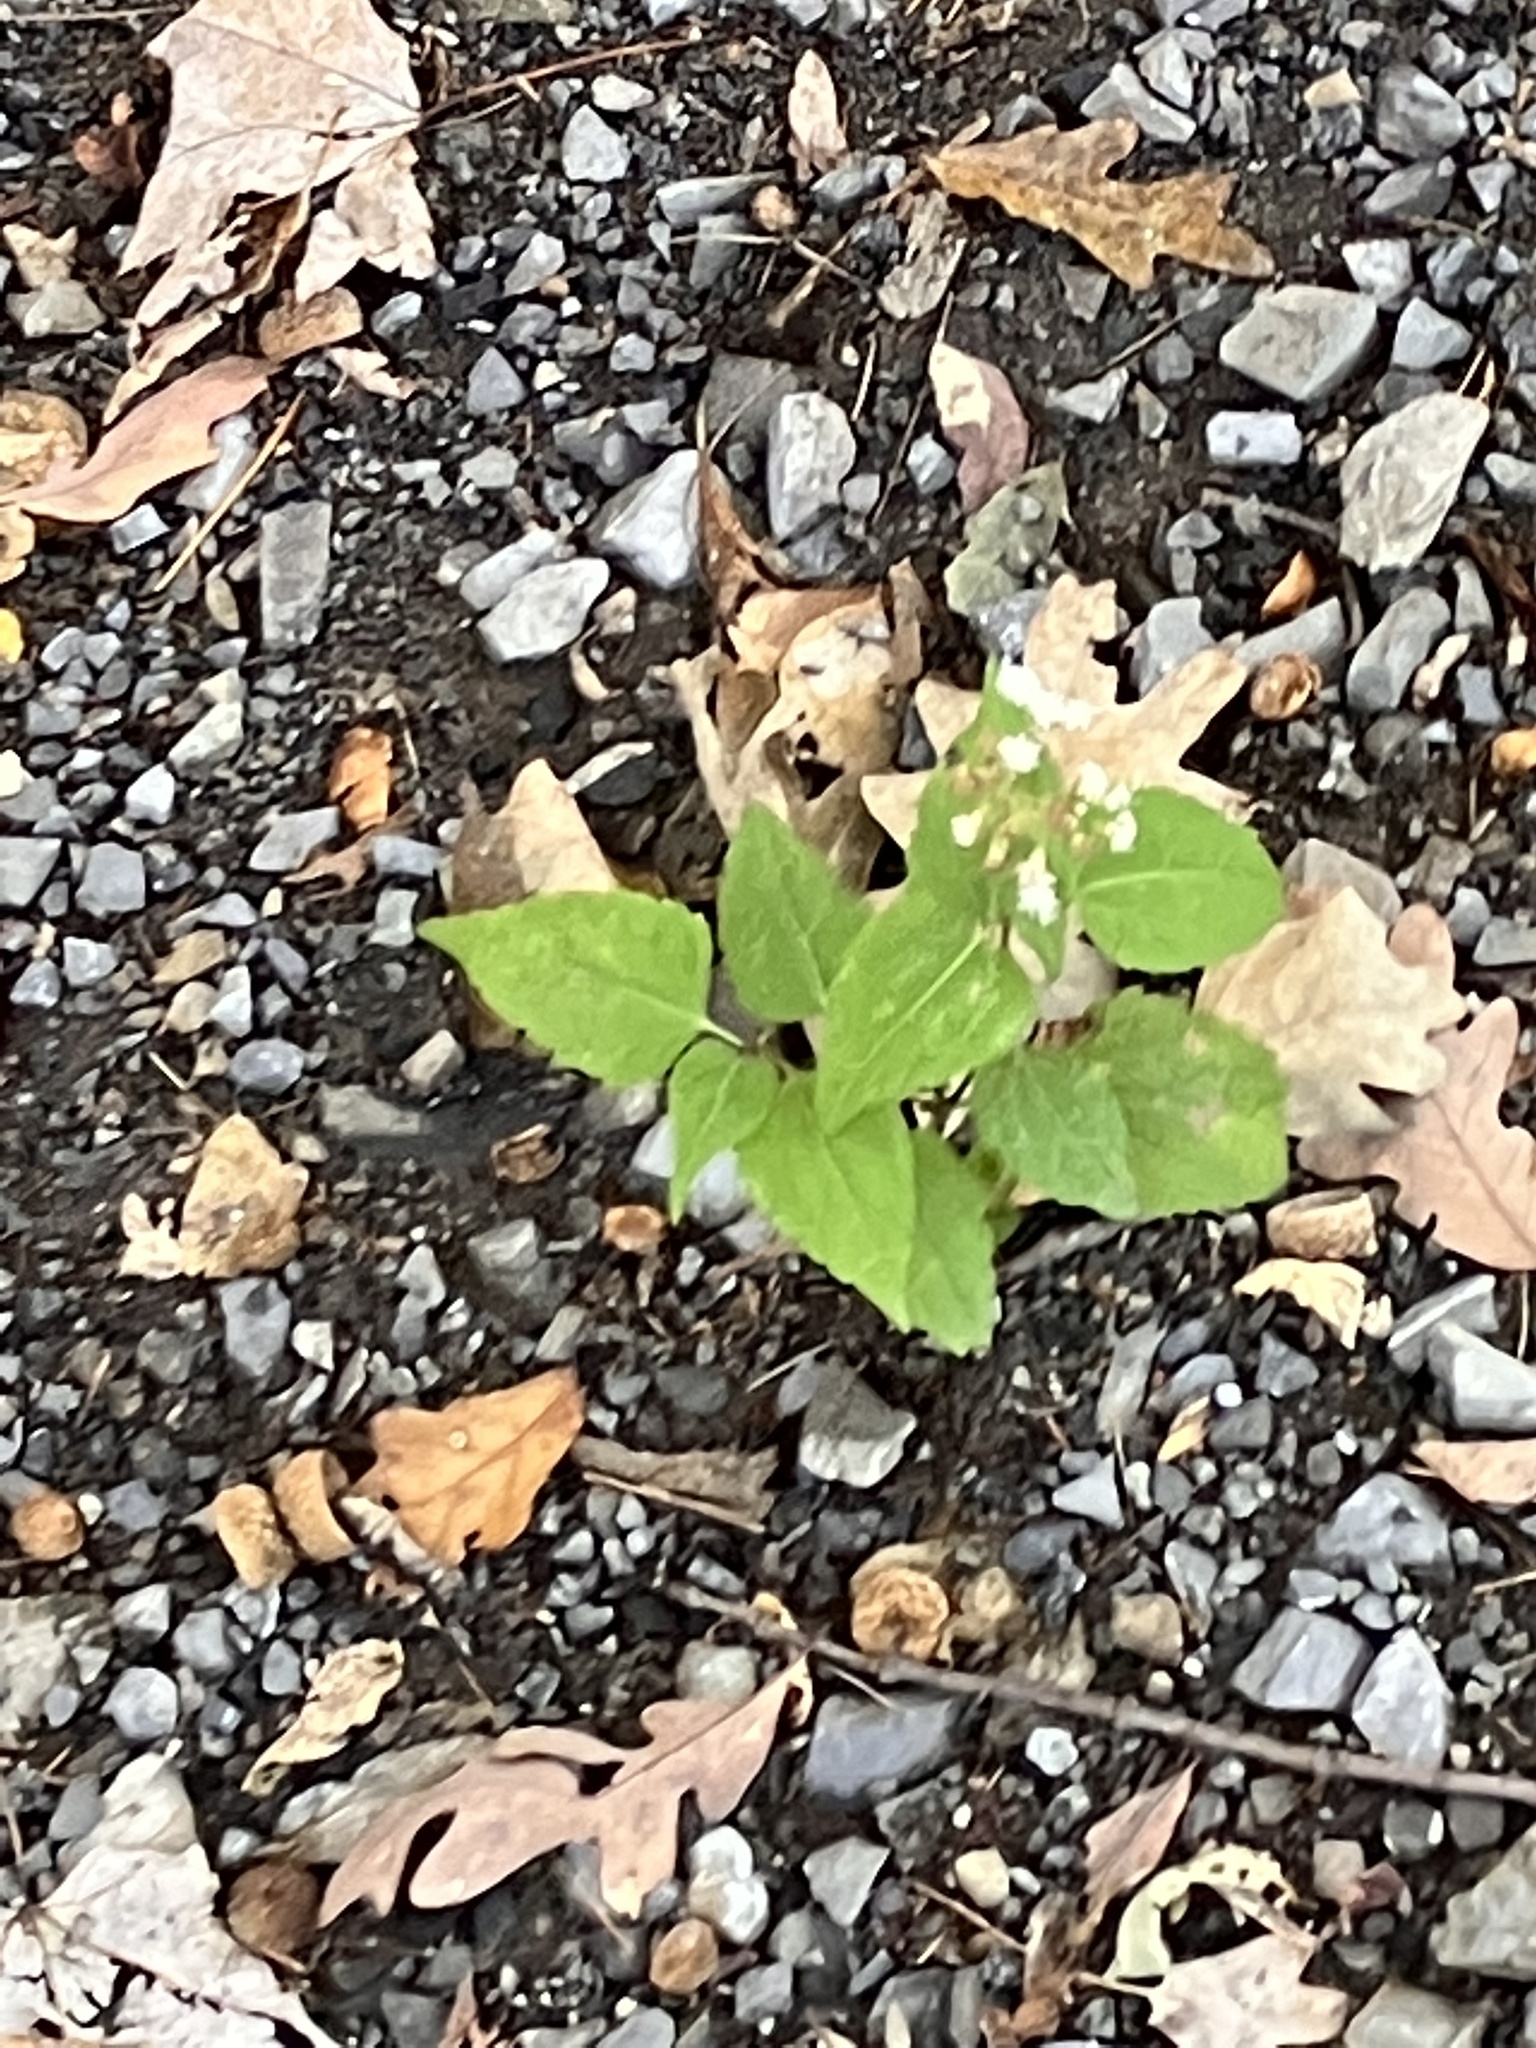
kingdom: Plantae
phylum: Tracheophyta
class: Magnoliopsida
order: Asterales
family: Asteraceae
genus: Ageratina
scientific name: Ageratina altissima
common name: White snakeroot
